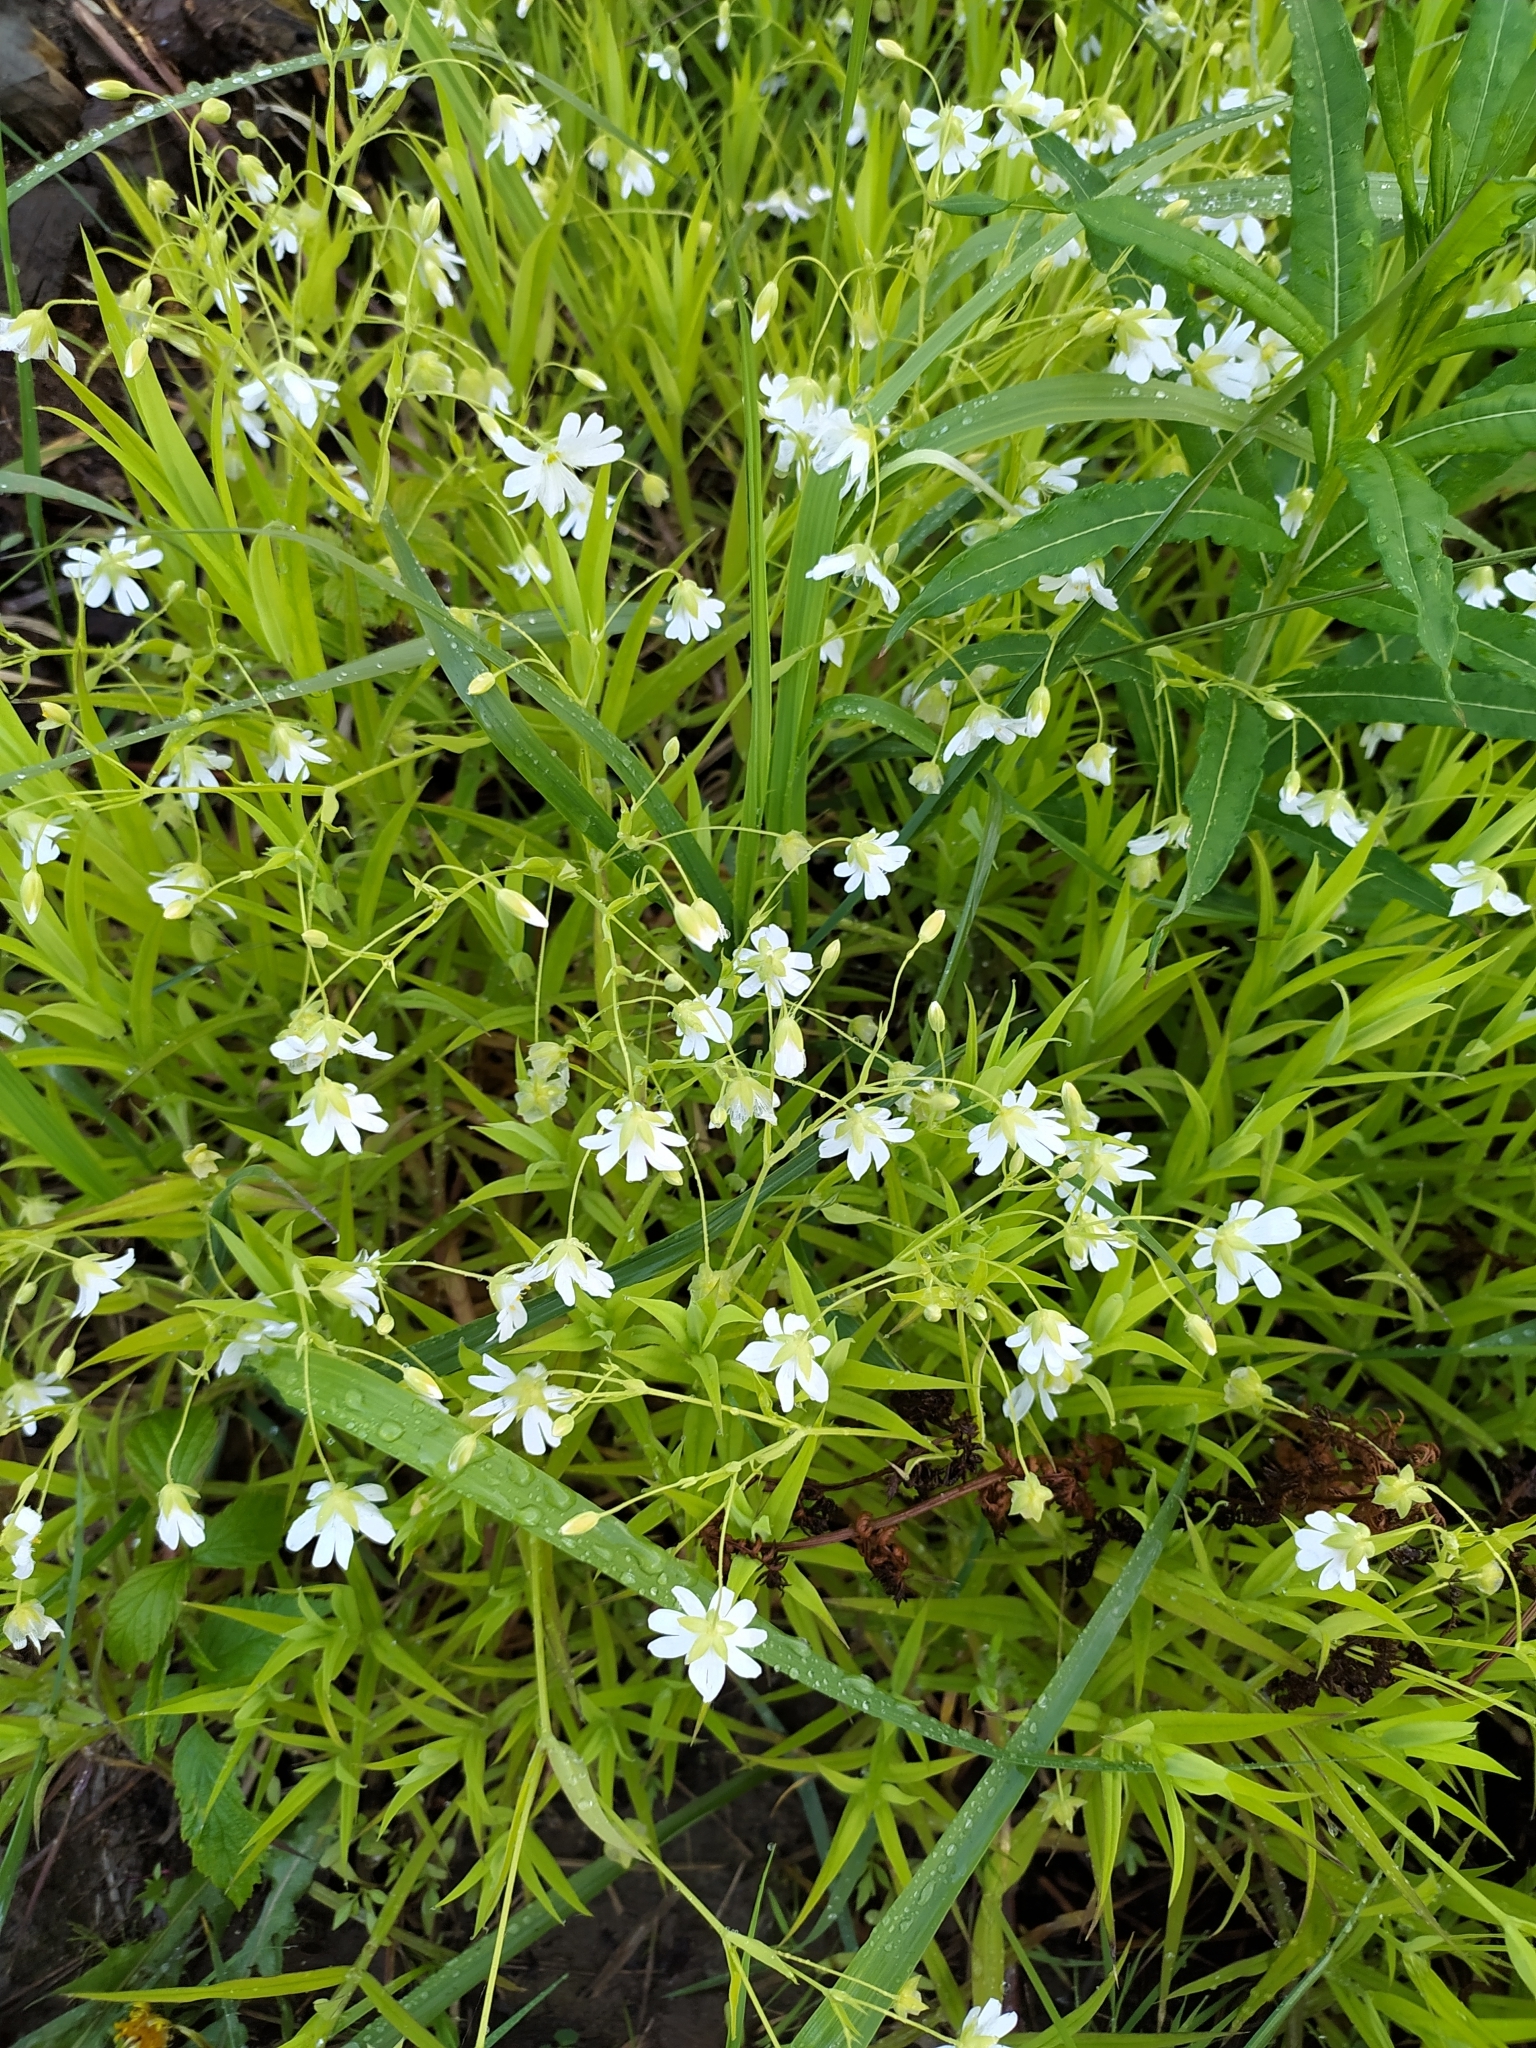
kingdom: Plantae
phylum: Tracheophyta
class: Magnoliopsida
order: Caryophyllales
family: Caryophyllaceae
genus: Rabelera
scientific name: Rabelera holostea
